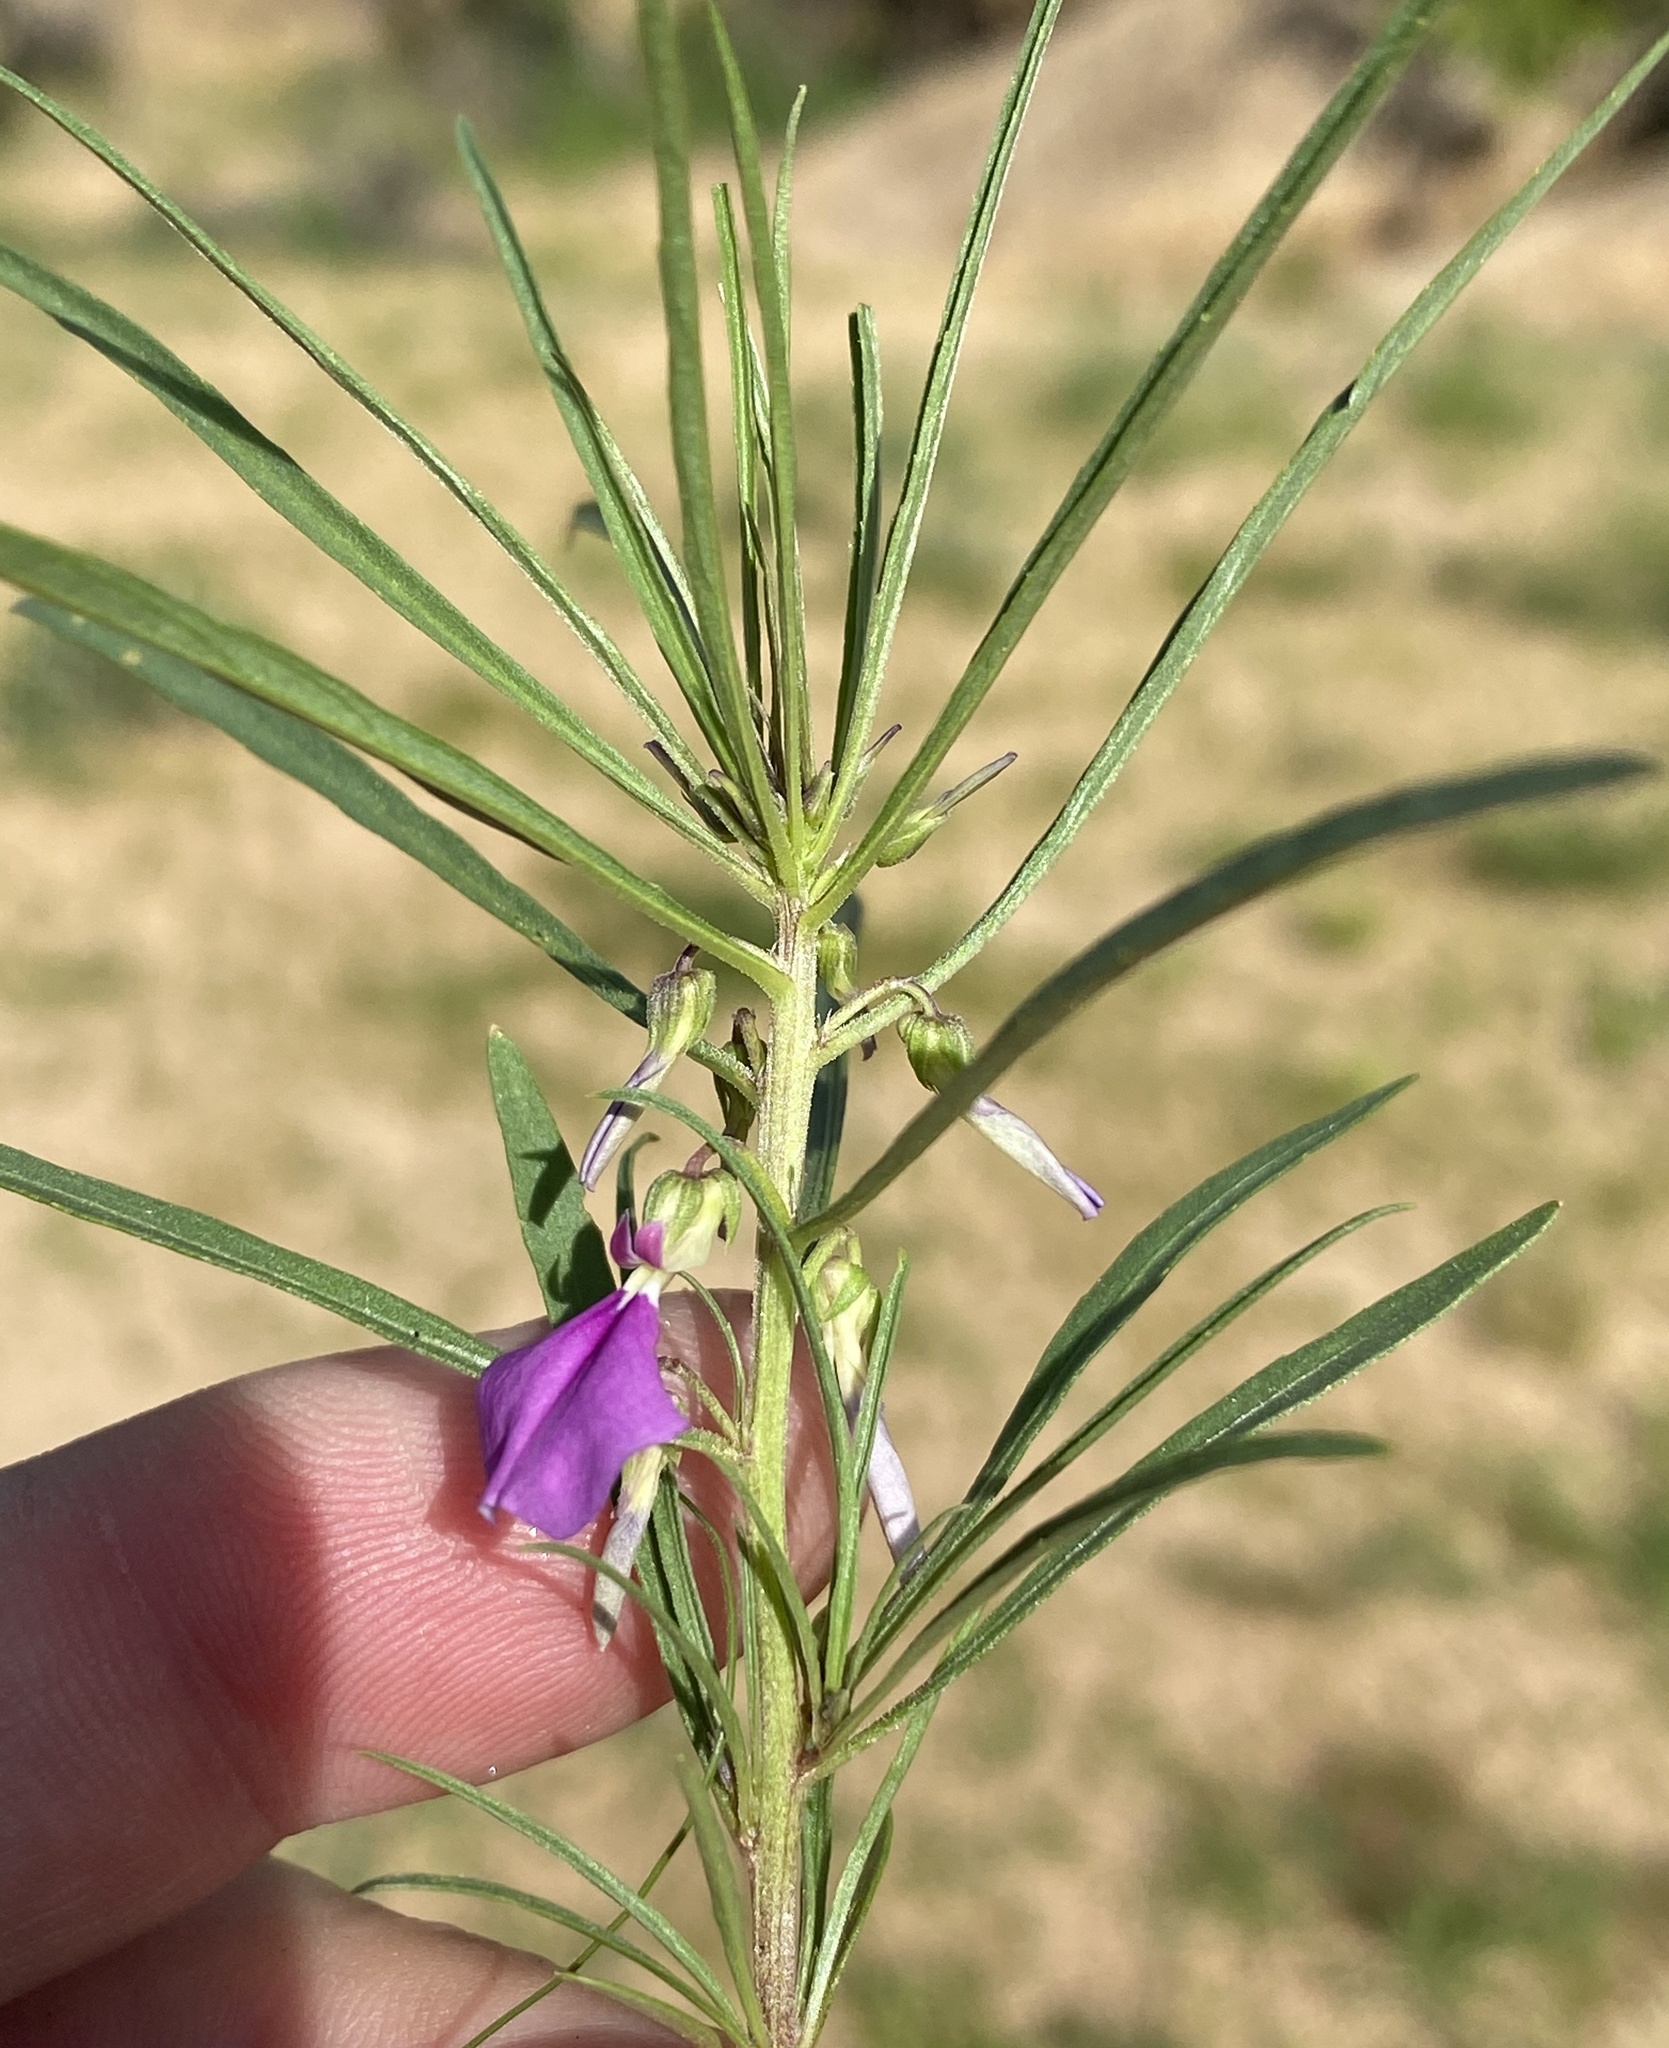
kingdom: Plantae
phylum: Tracheophyta
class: Magnoliopsida
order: Malpighiales
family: Violaceae
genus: Pigea
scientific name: Pigea densifolia
